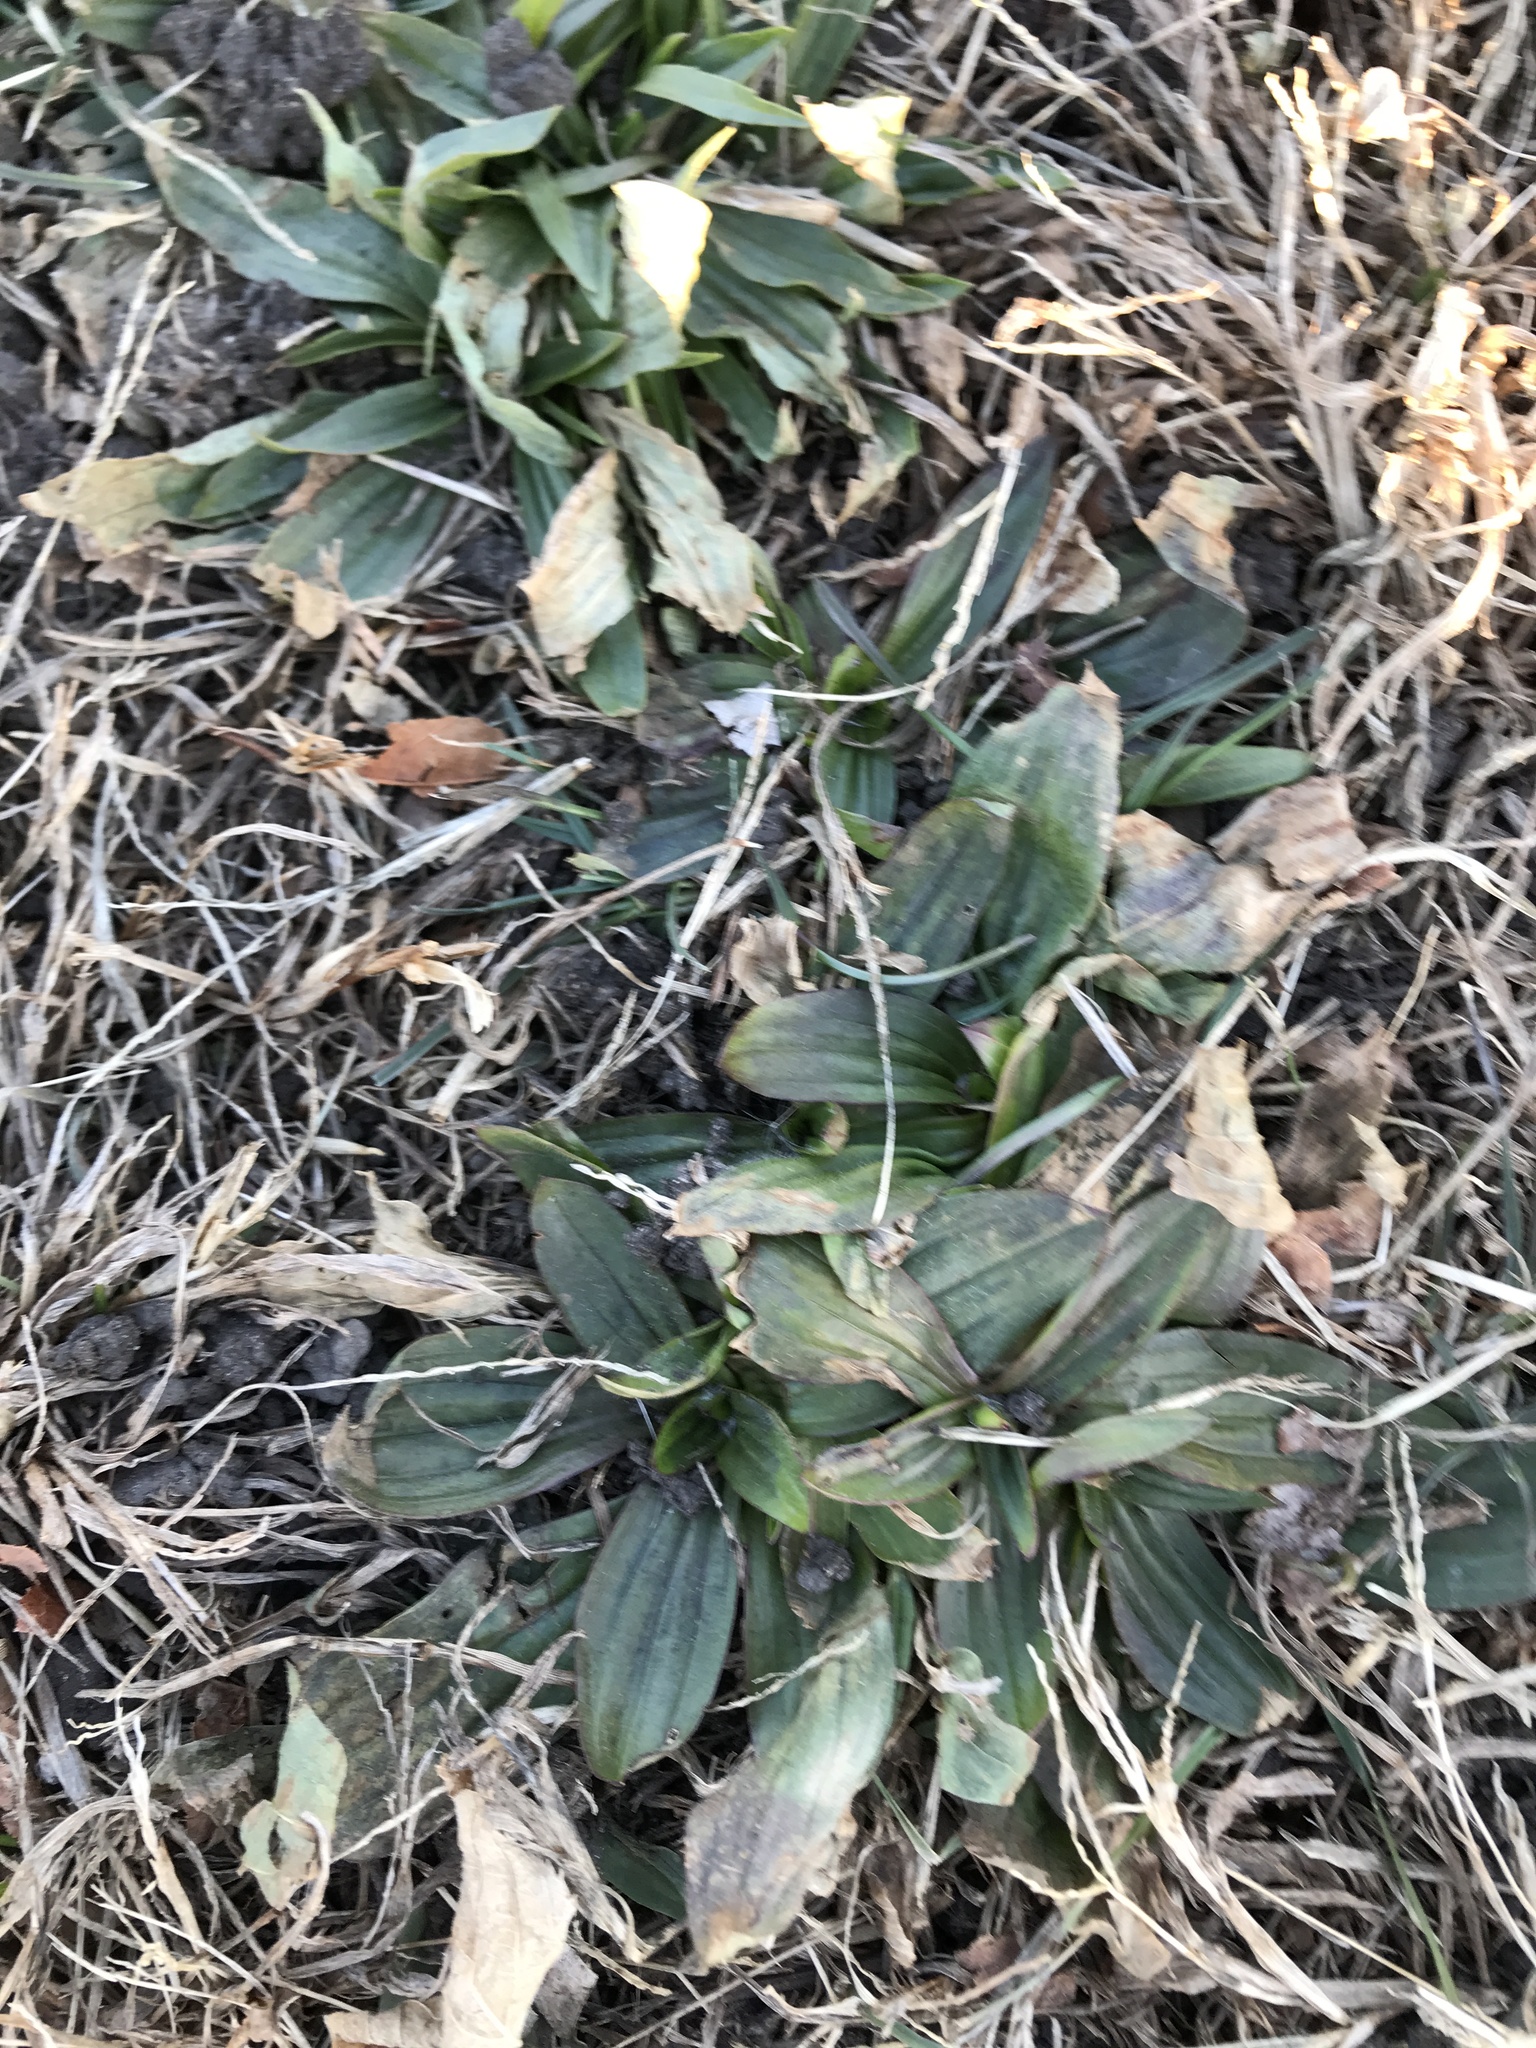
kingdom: Plantae
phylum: Tracheophyta
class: Magnoliopsida
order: Lamiales
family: Plantaginaceae
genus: Plantago
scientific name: Plantago lanceolata
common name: Ribwort plantain
